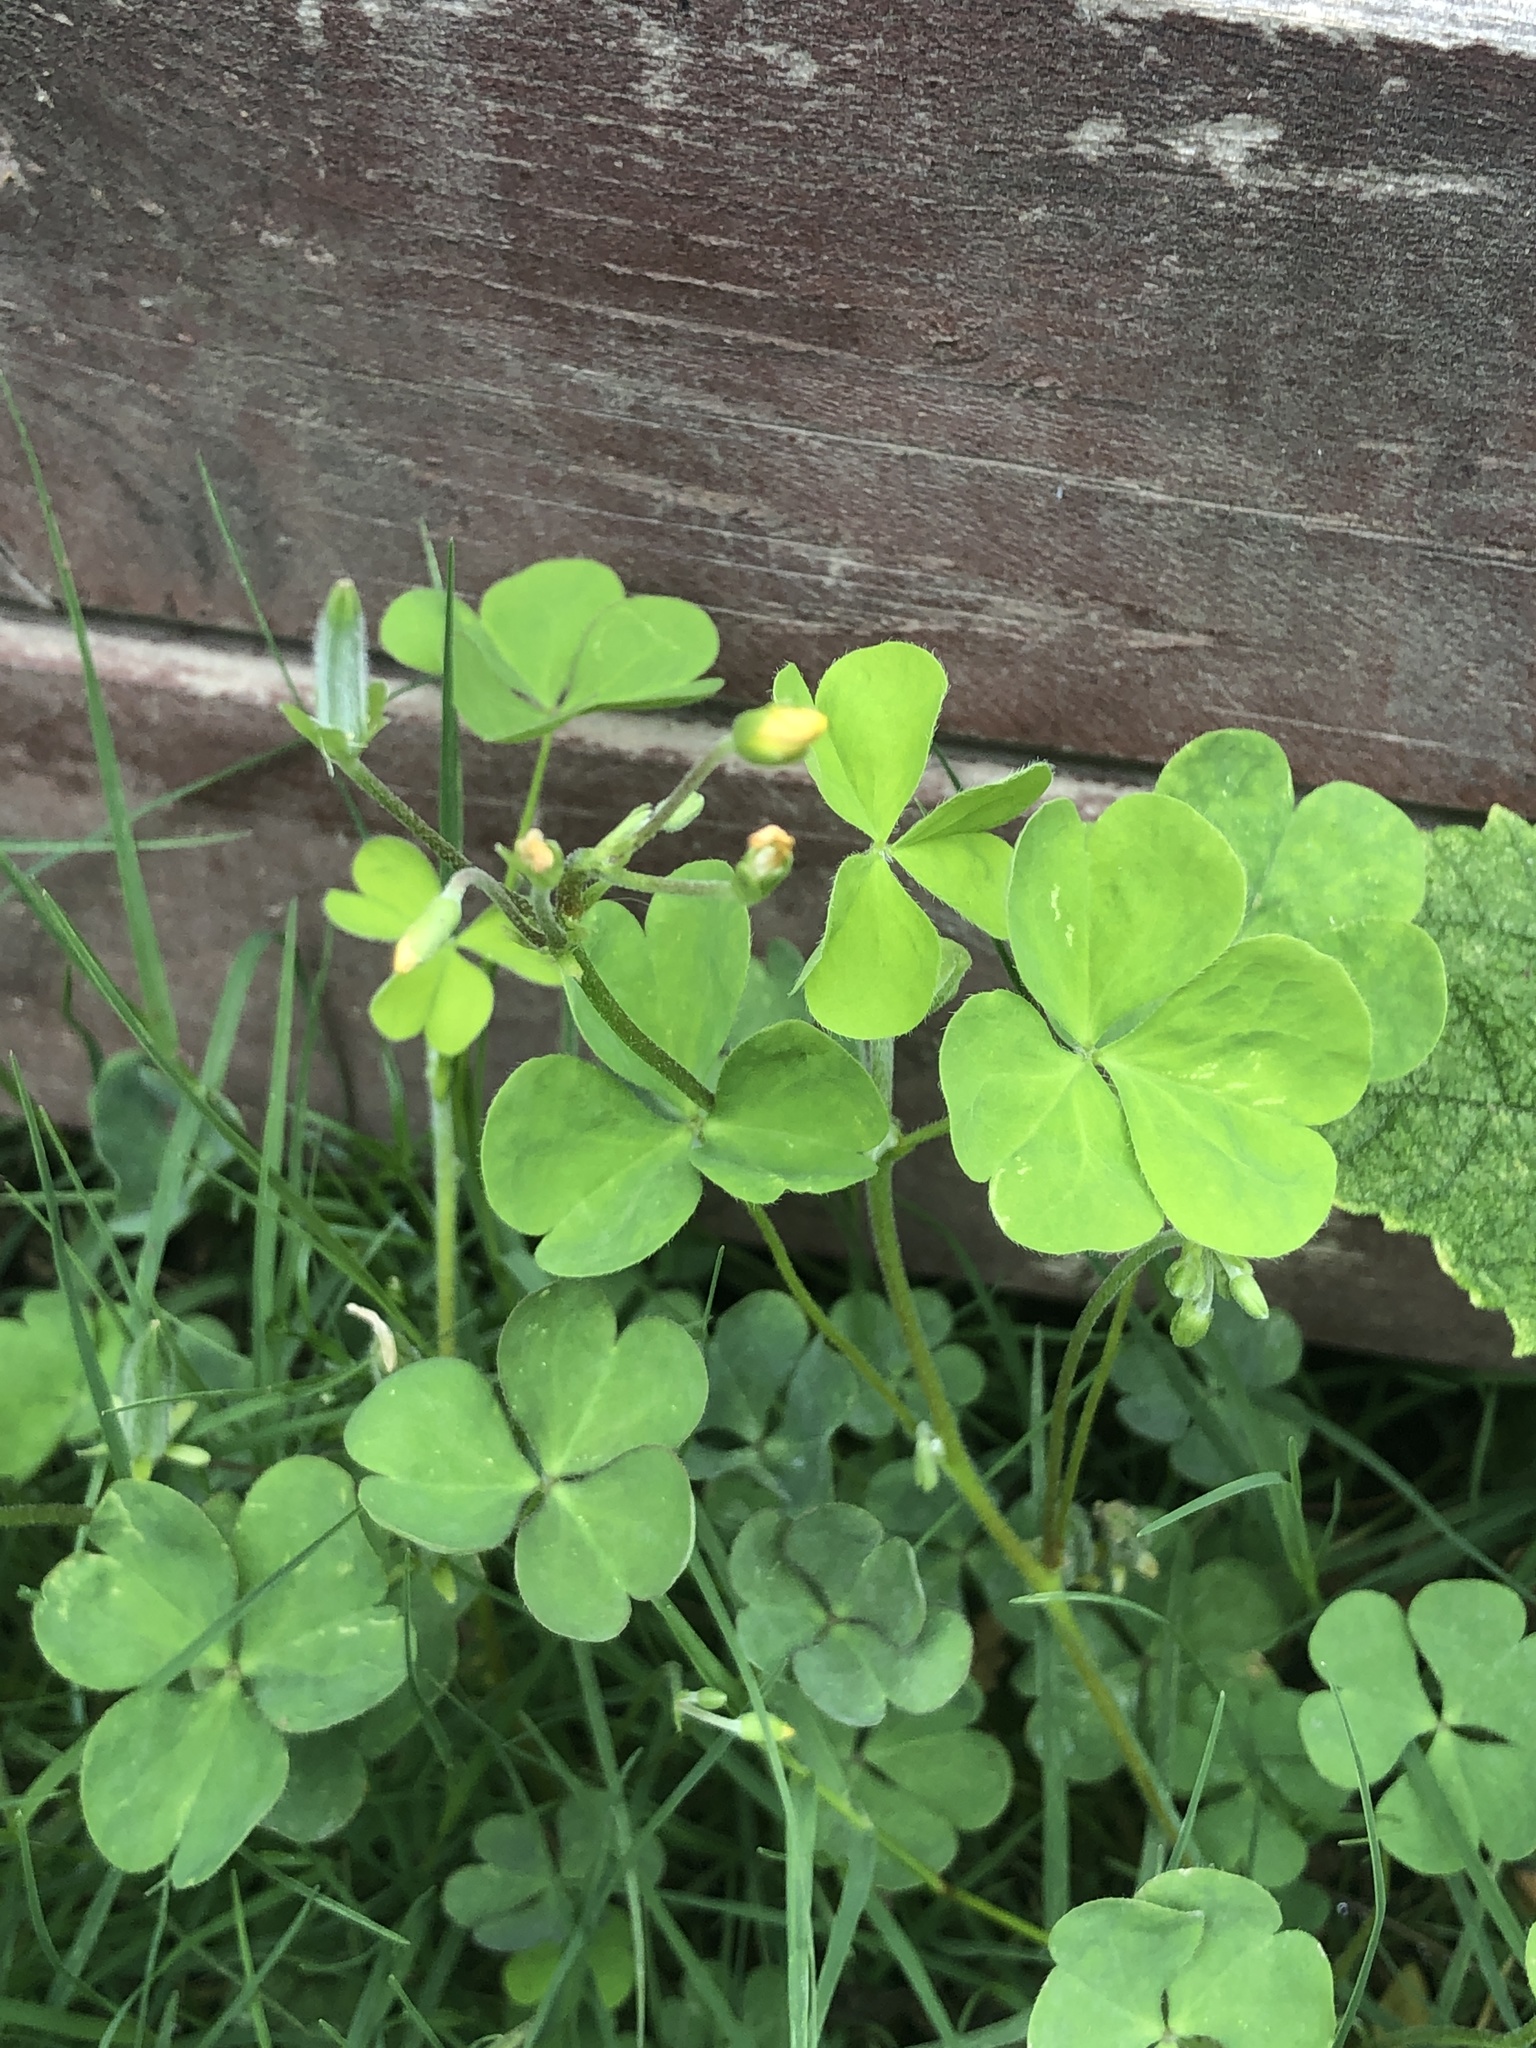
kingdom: Plantae
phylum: Tracheophyta
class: Magnoliopsida
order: Oxalidales
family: Oxalidaceae
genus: Oxalis
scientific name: Oxalis corniculata
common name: Procumbent yellow-sorrel
